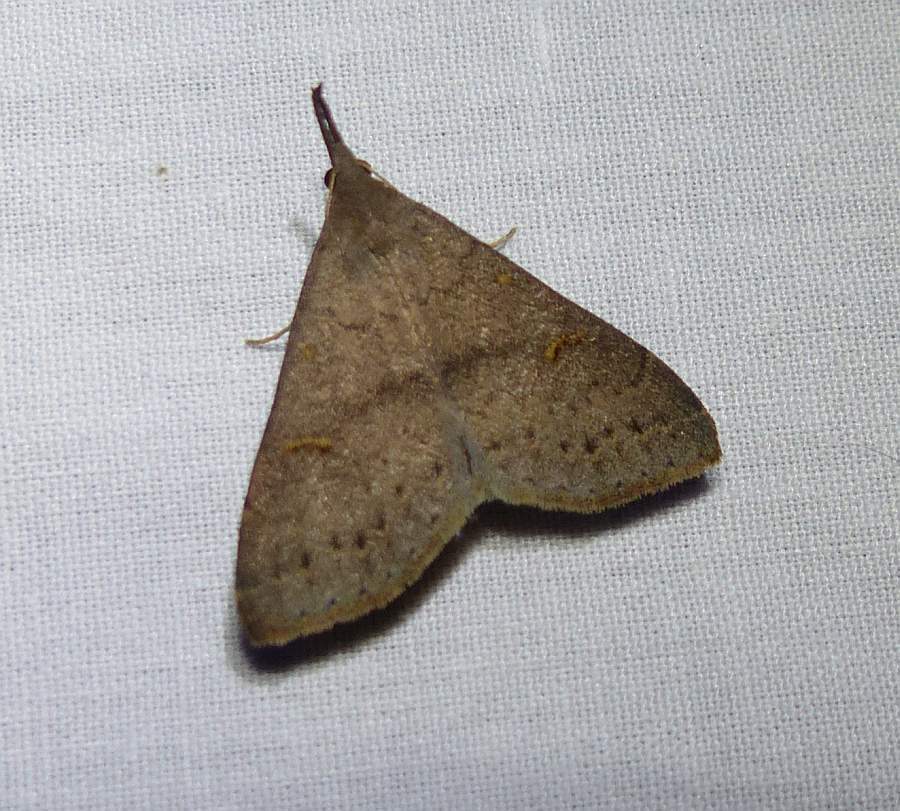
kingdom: Animalia
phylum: Arthropoda
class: Insecta
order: Lepidoptera
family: Erebidae
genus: Macrochilo
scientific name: Macrochilo morbidalis
